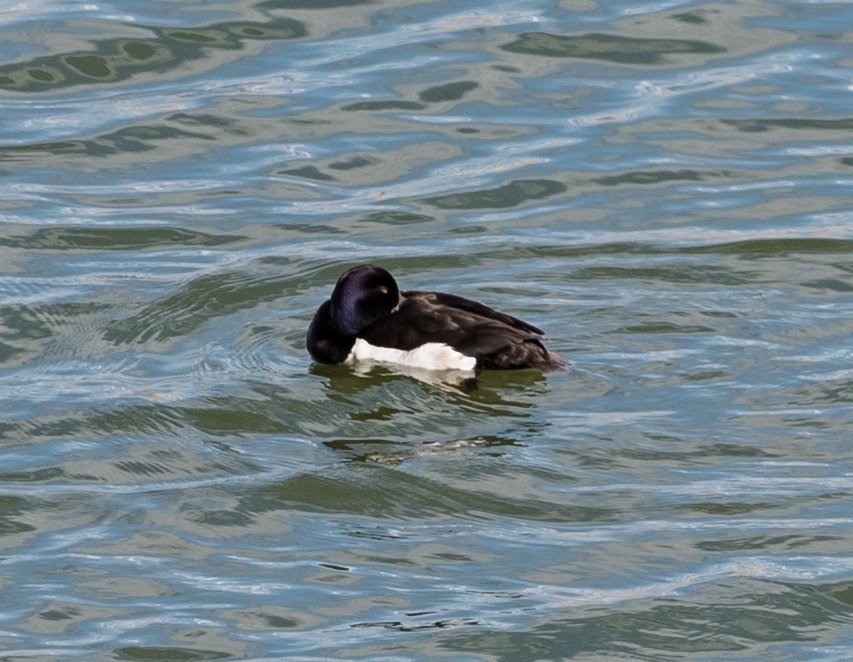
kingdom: Animalia
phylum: Chordata
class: Aves
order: Anseriformes
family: Anatidae
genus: Aythya
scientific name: Aythya fuligula
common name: Tufted duck
